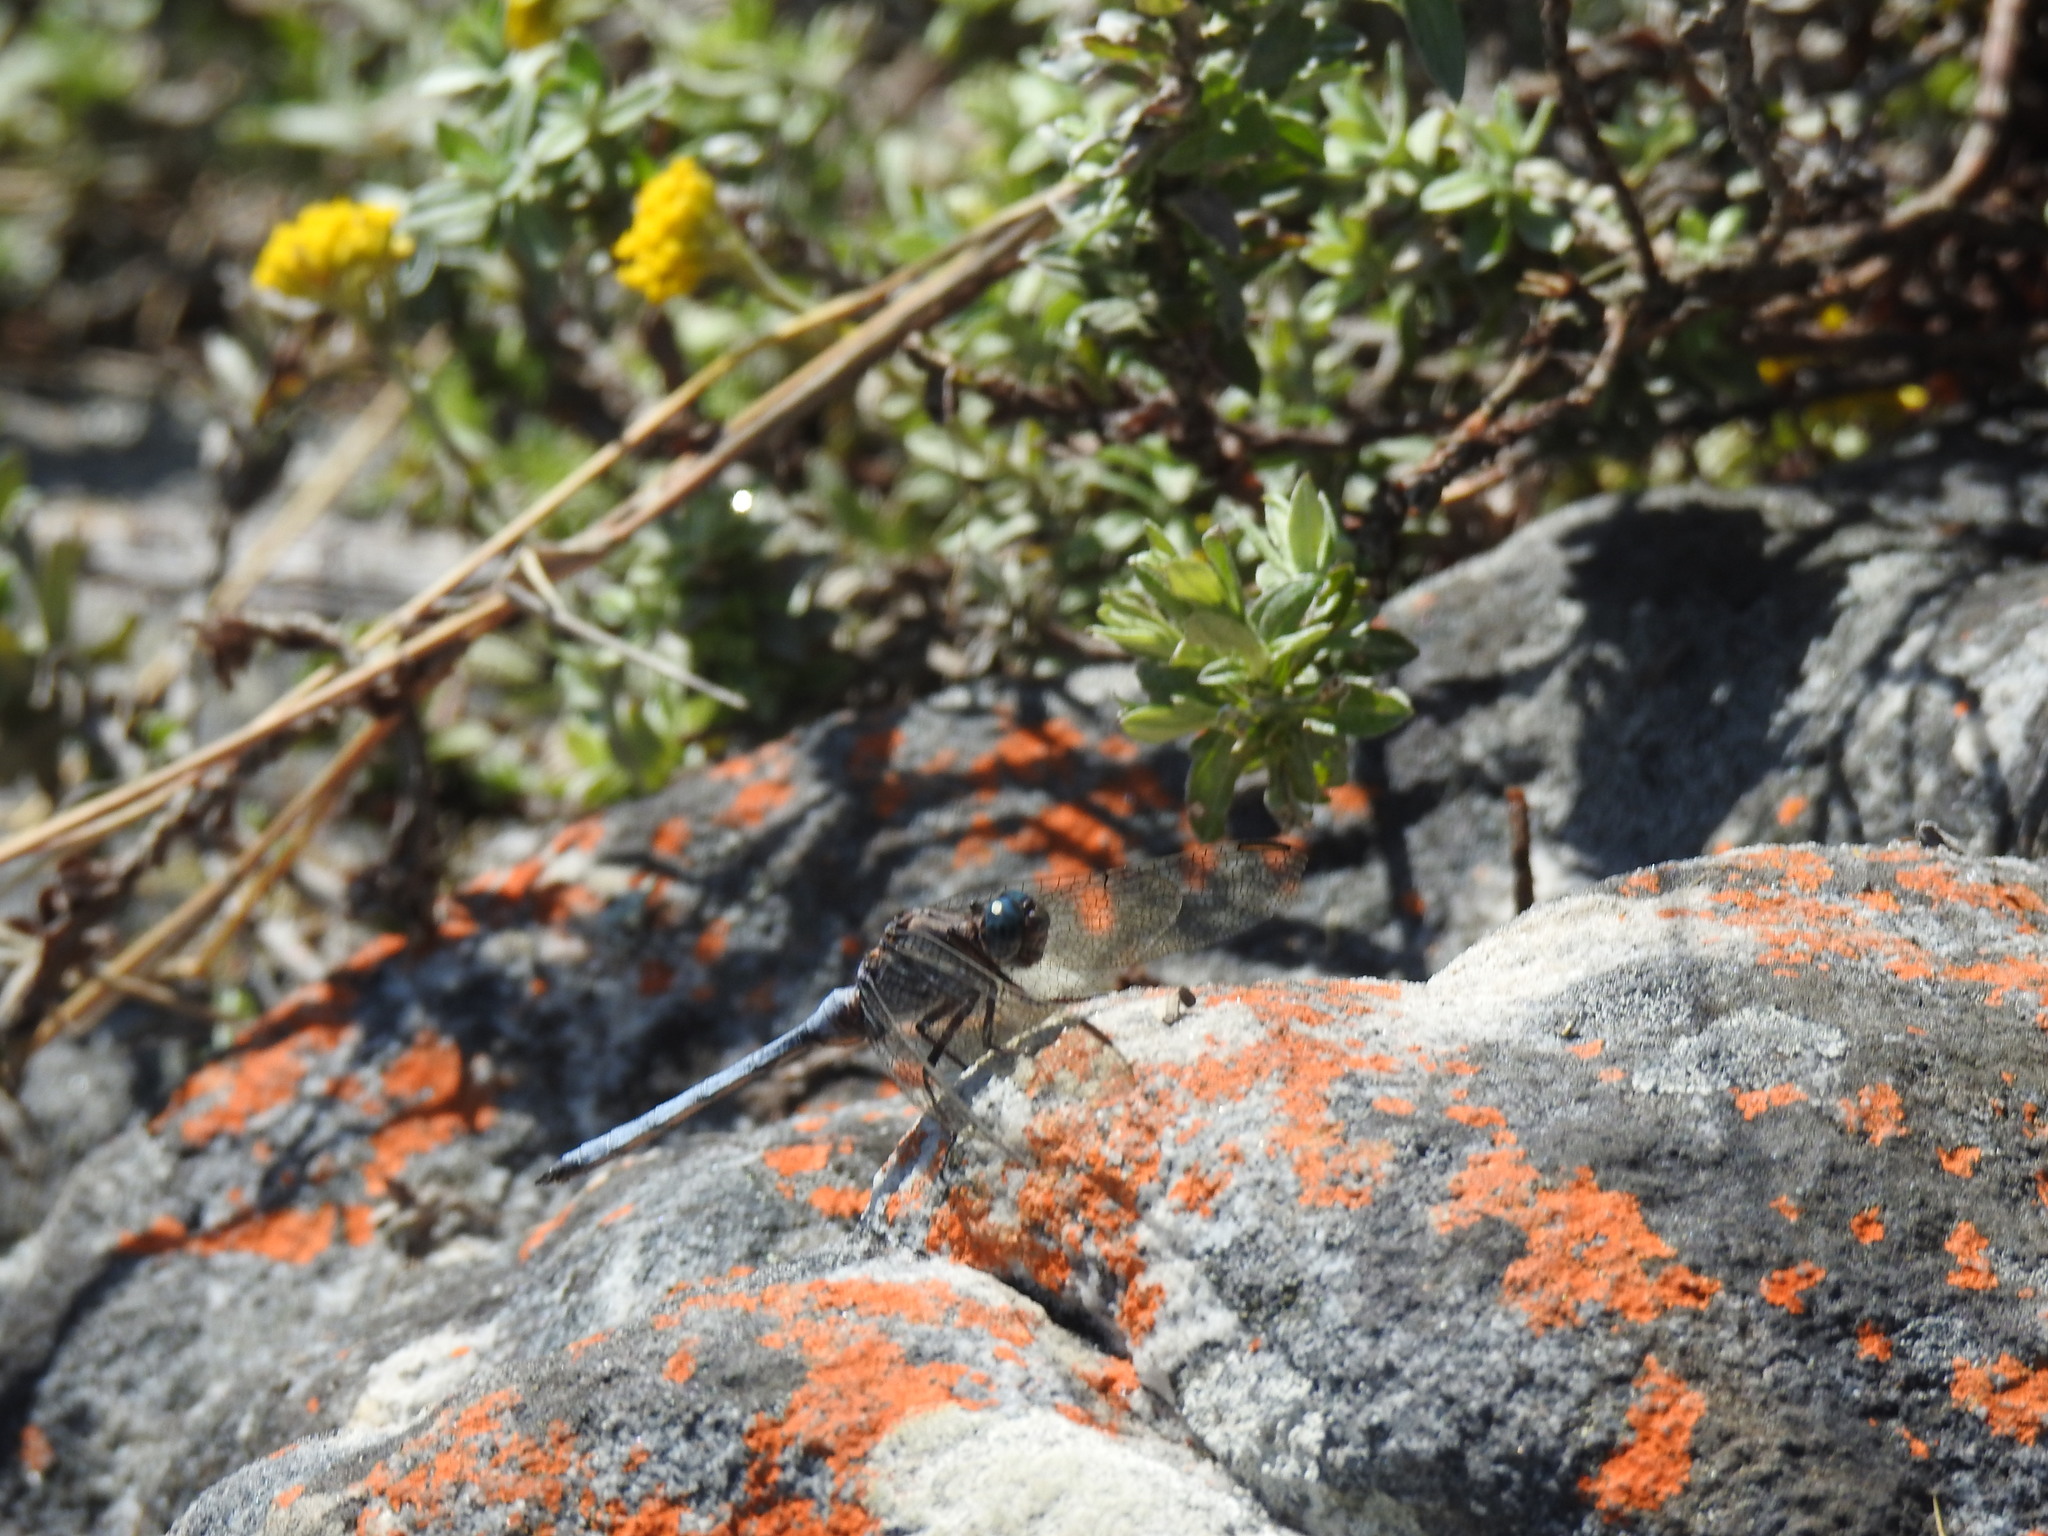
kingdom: Animalia
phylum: Arthropoda
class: Insecta
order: Odonata
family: Libellulidae
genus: Orthetrum
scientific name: Orthetrum julia
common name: Julia skimmer
